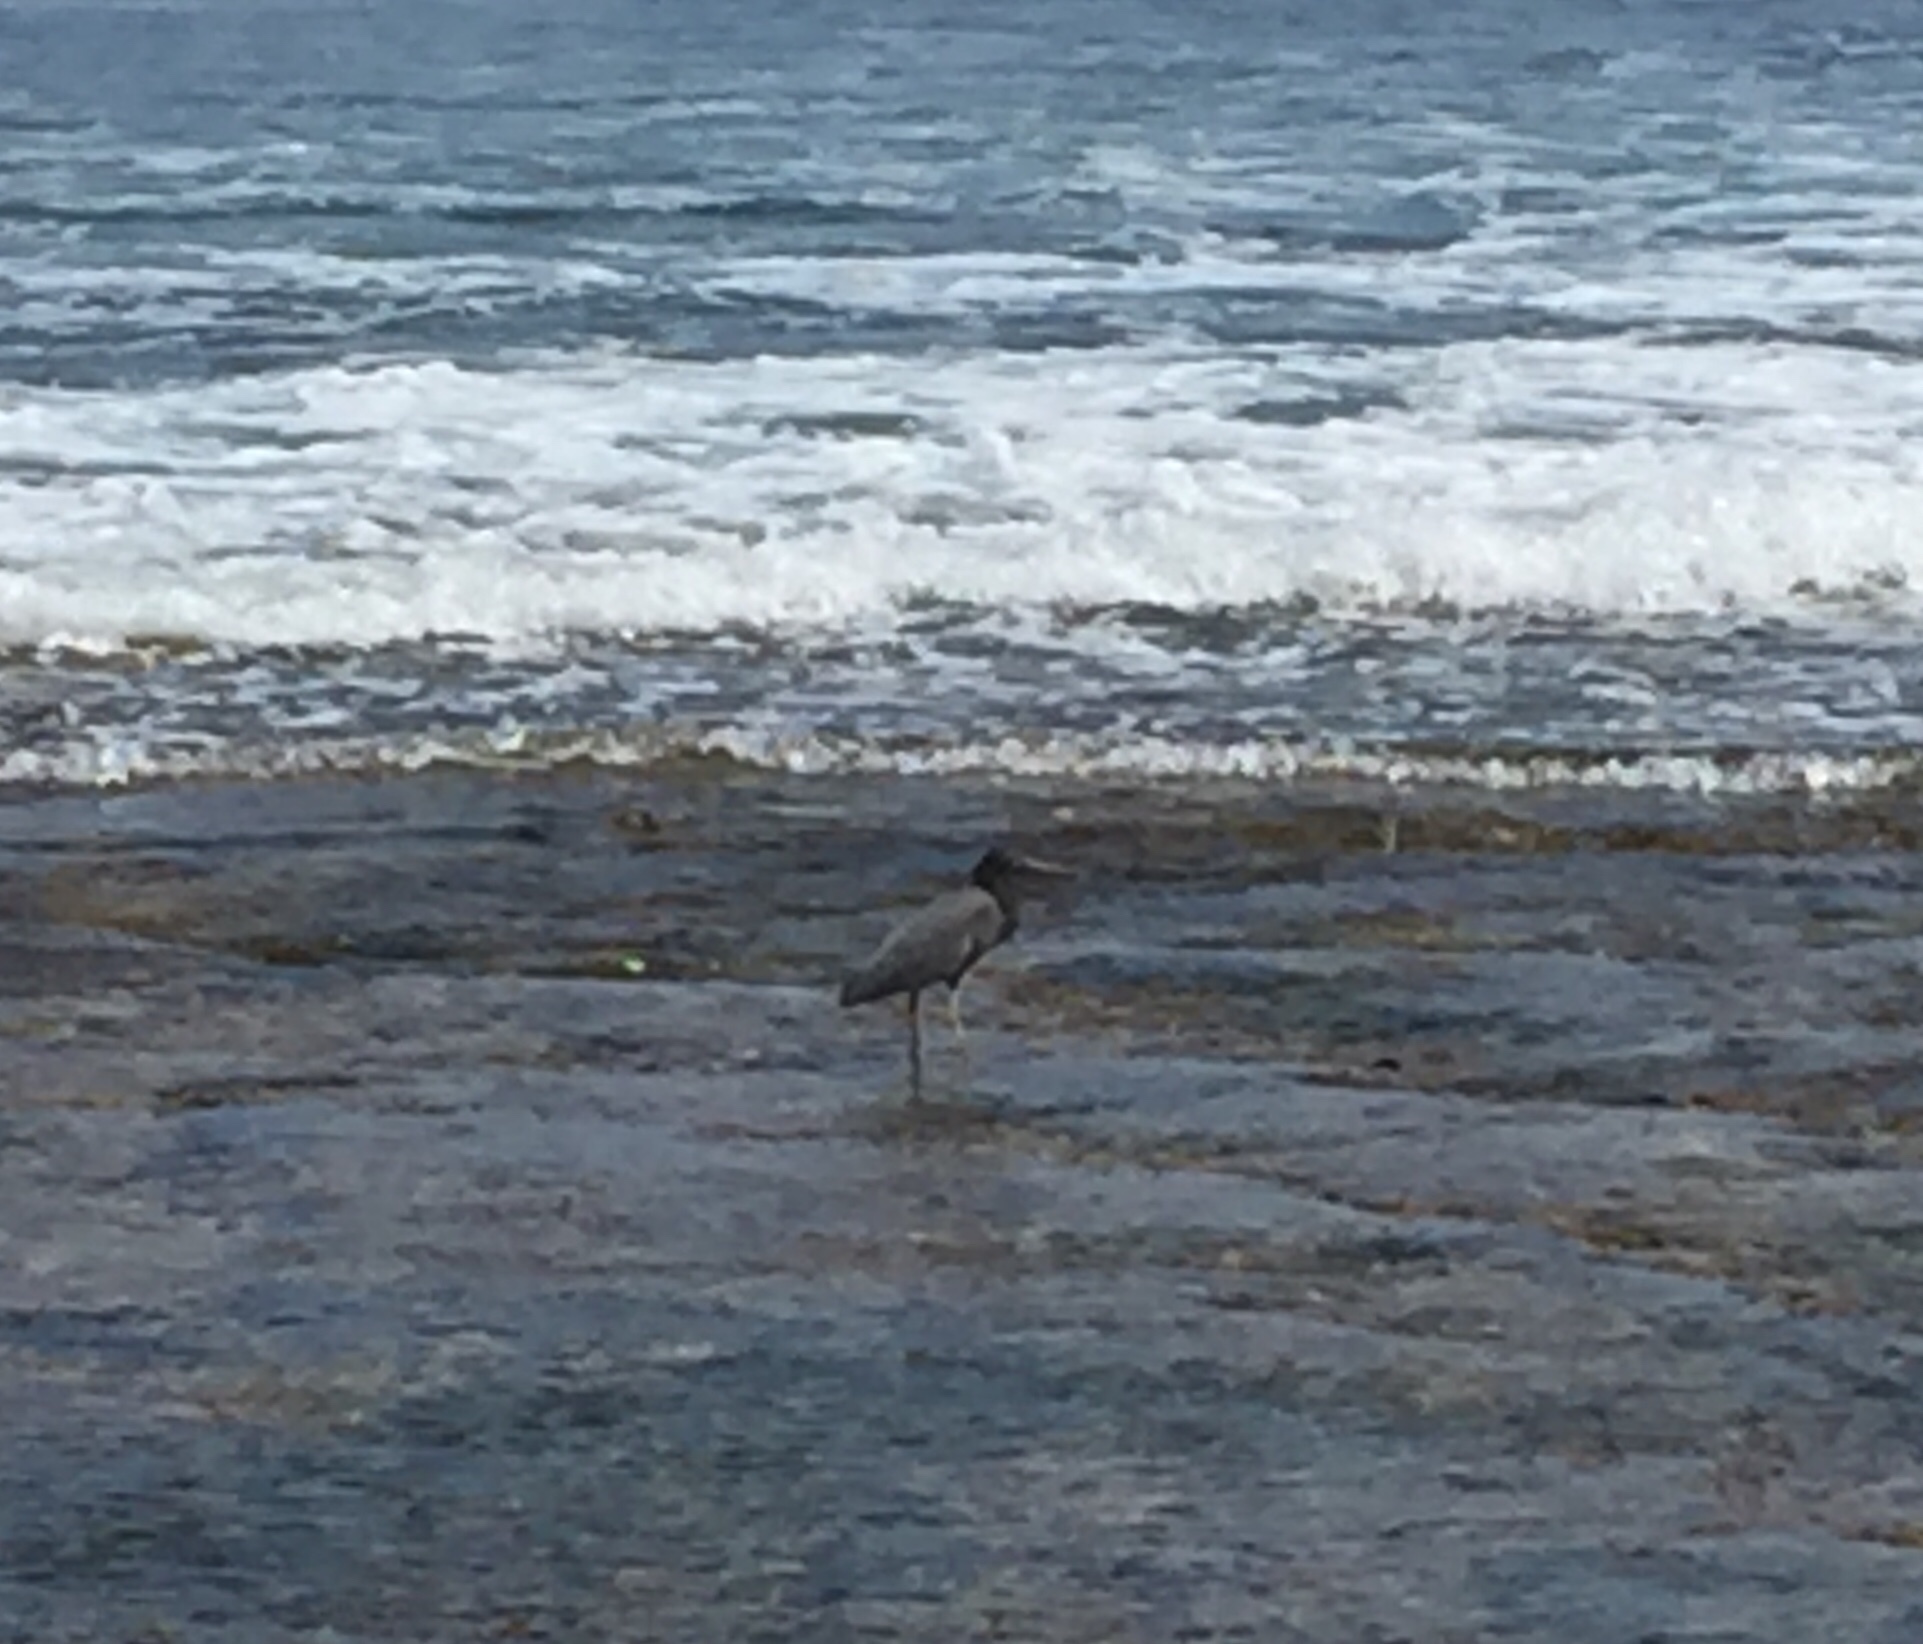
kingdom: Animalia
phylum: Chordata
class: Aves
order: Pelecaniformes
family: Ardeidae
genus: Egretta
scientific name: Egretta sacra
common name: Pacific reef heron
